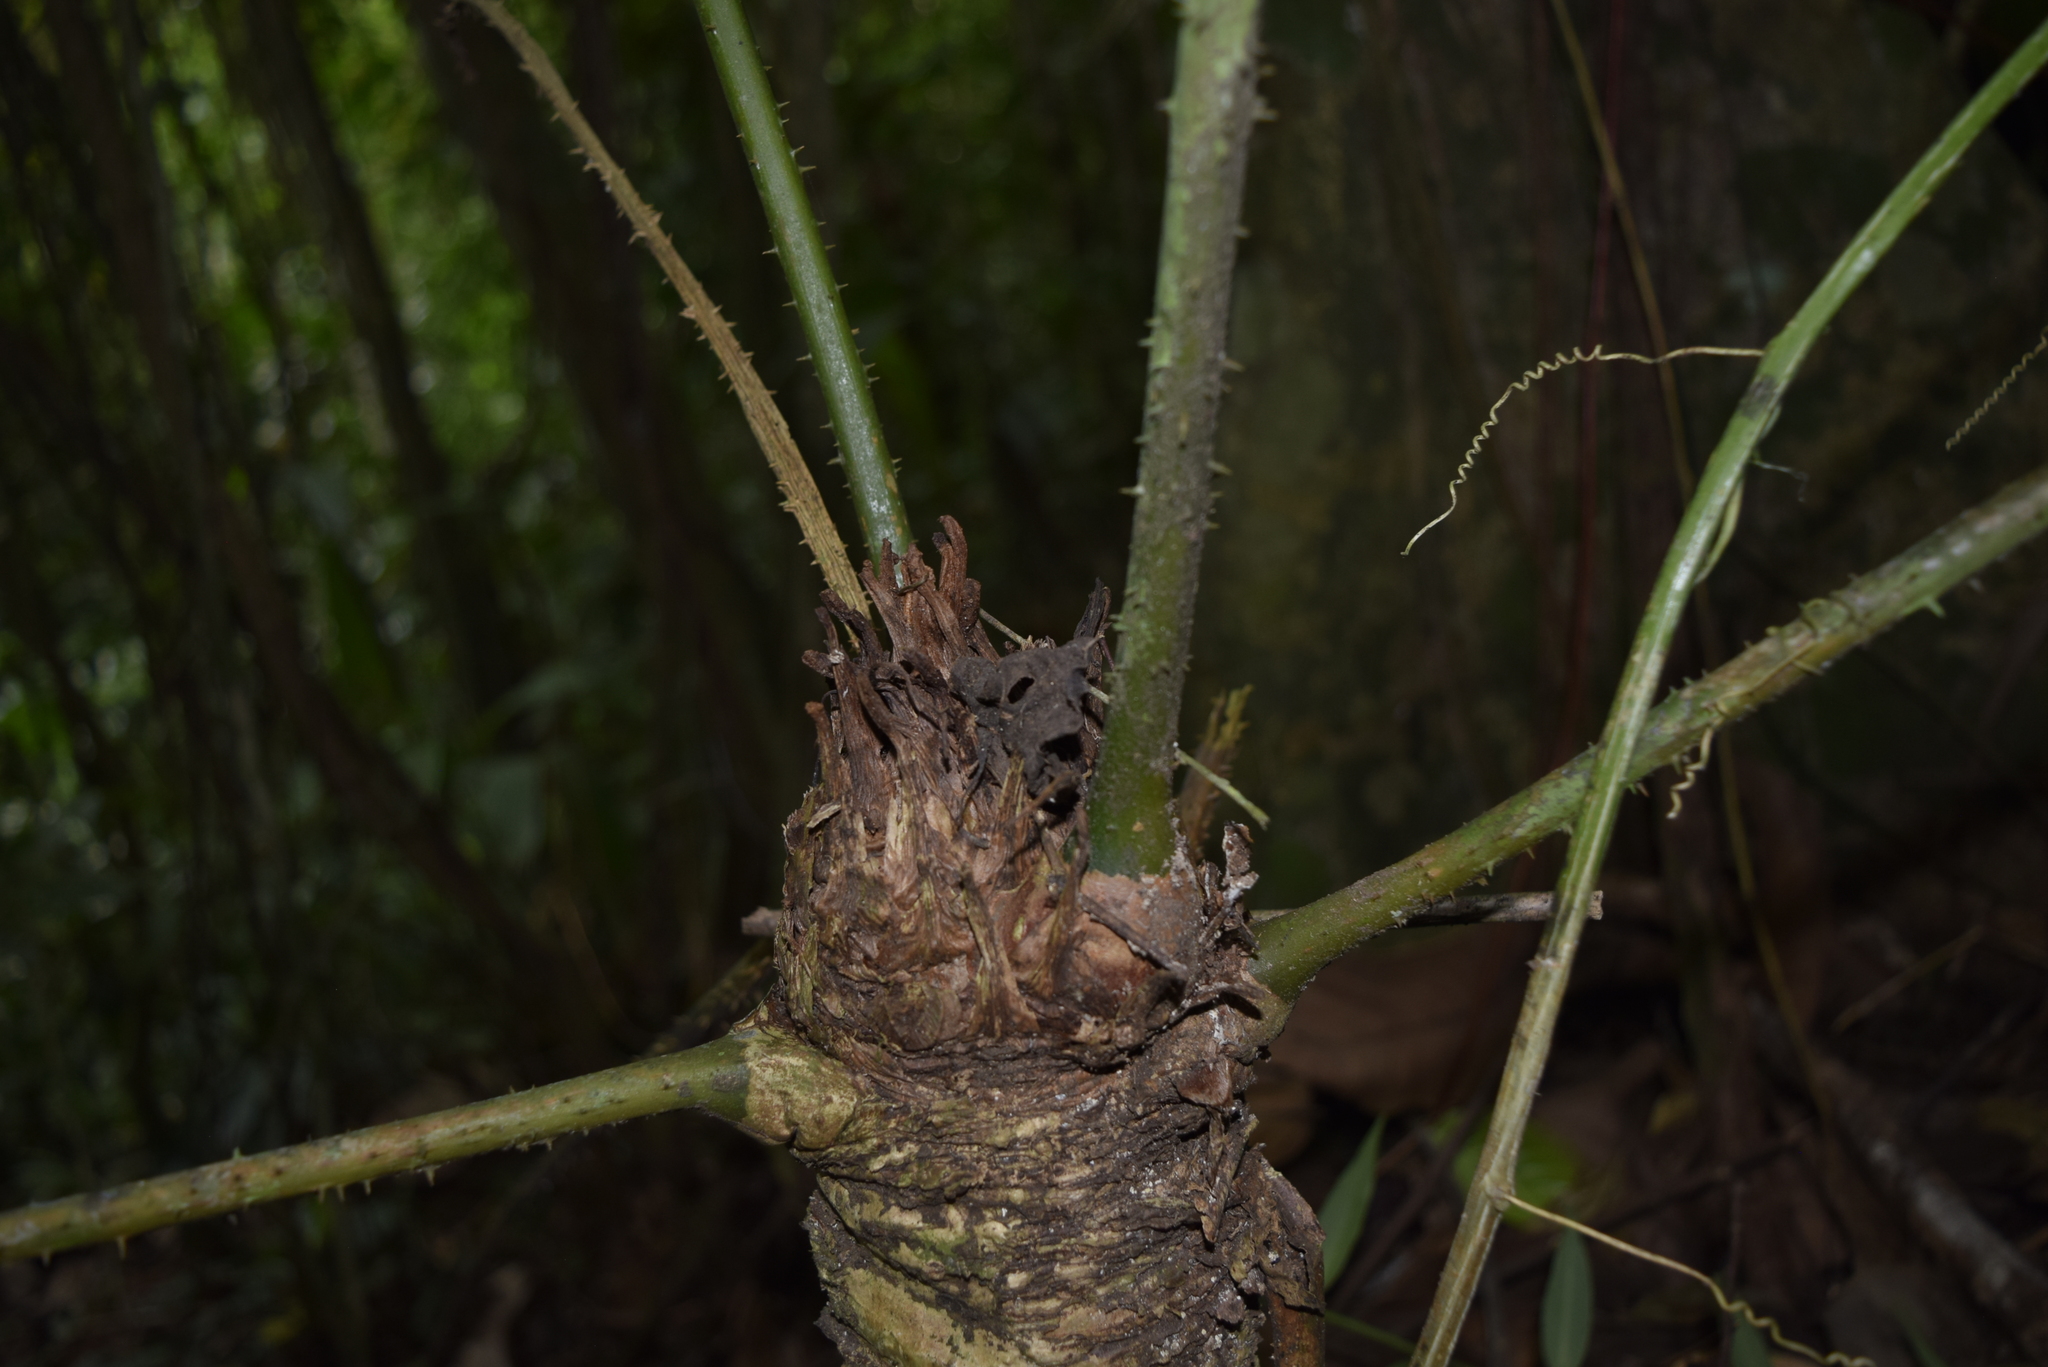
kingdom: Plantae
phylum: Tracheophyta
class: Cycadopsida
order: Cycadales
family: Zamiaceae
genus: Zamia
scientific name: Zamia lindenii
